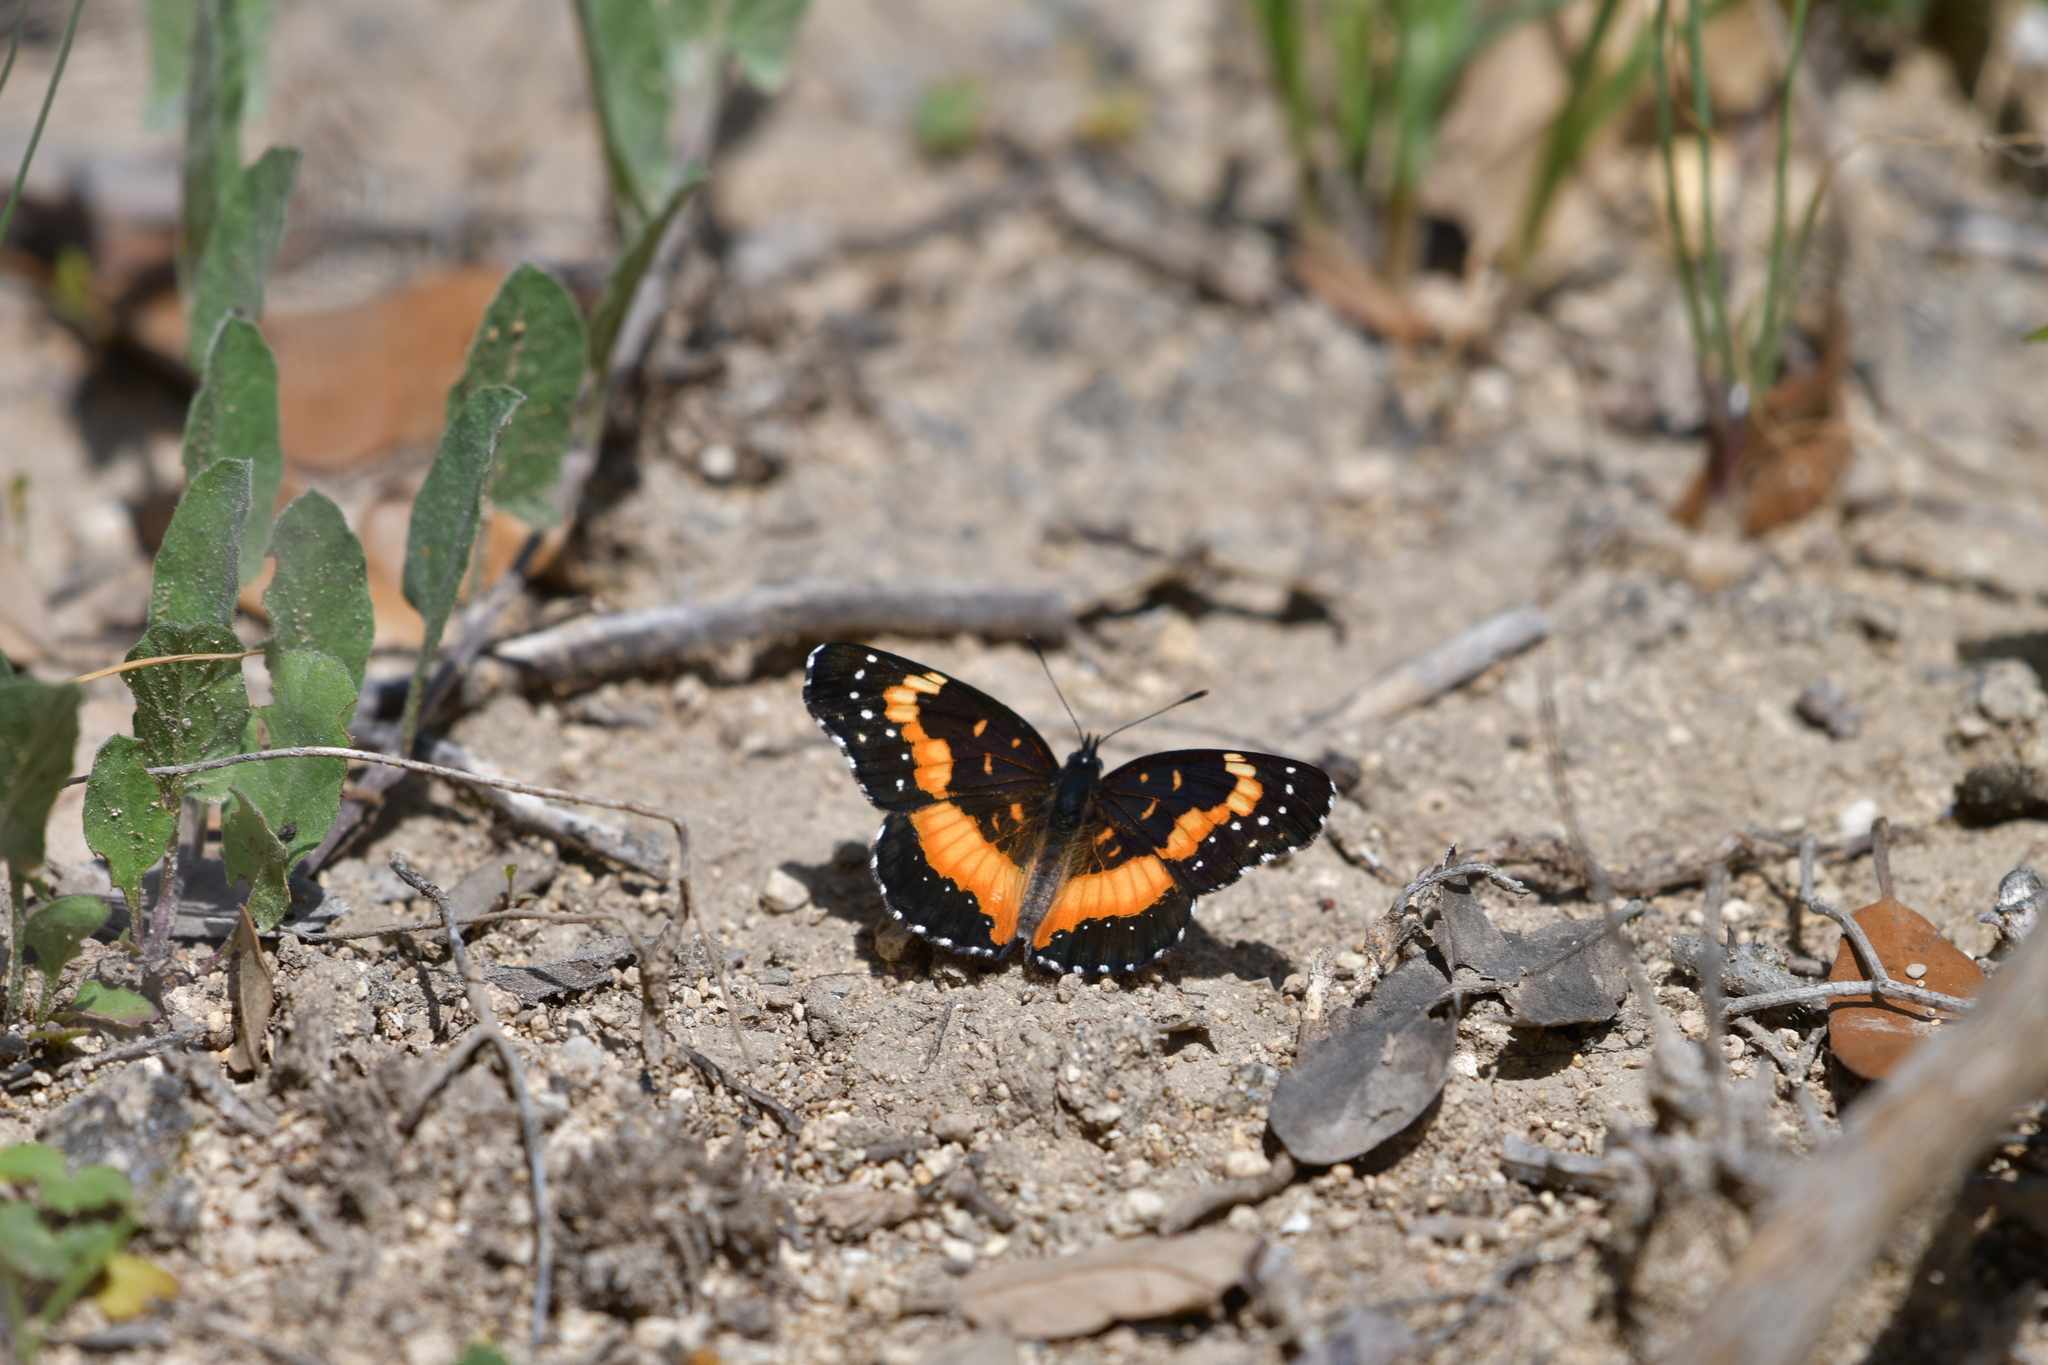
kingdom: Animalia
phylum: Arthropoda
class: Insecta
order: Lepidoptera
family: Nymphalidae
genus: Chlosyne
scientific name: Chlosyne lacinia
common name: Bordered patch
